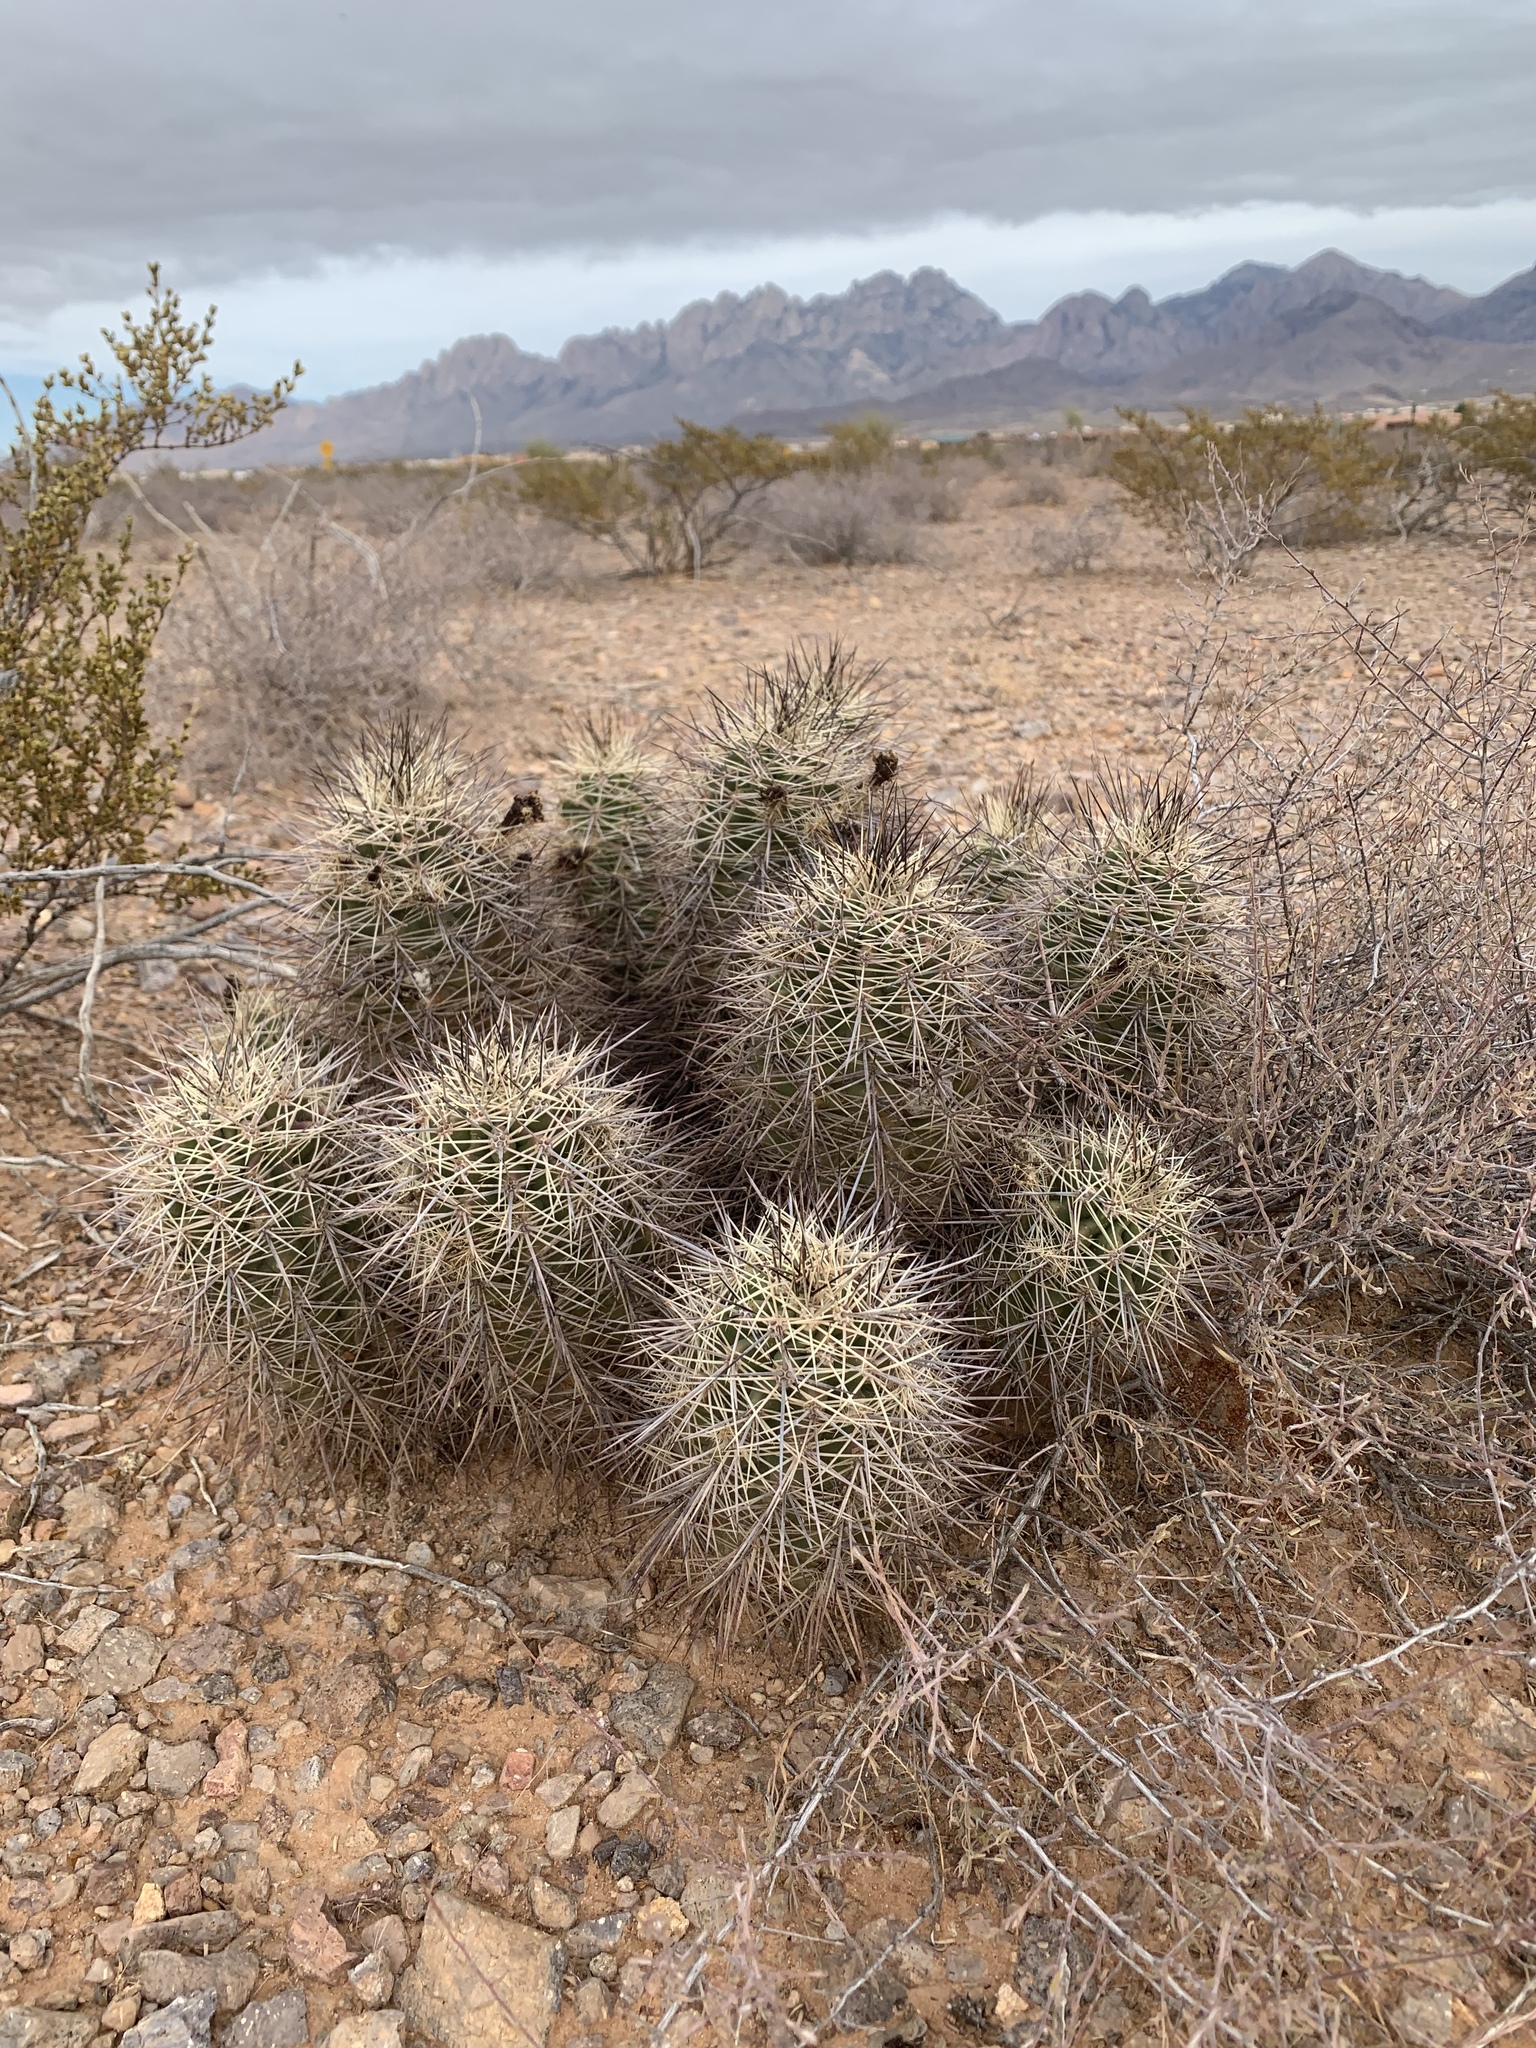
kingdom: Plantae
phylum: Tracheophyta
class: Magnoliopsida
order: Caryophyllales
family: Cactaceae
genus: Echinocereus
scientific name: Echinocereus coccineus
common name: Scarlet hedgehog cactus
